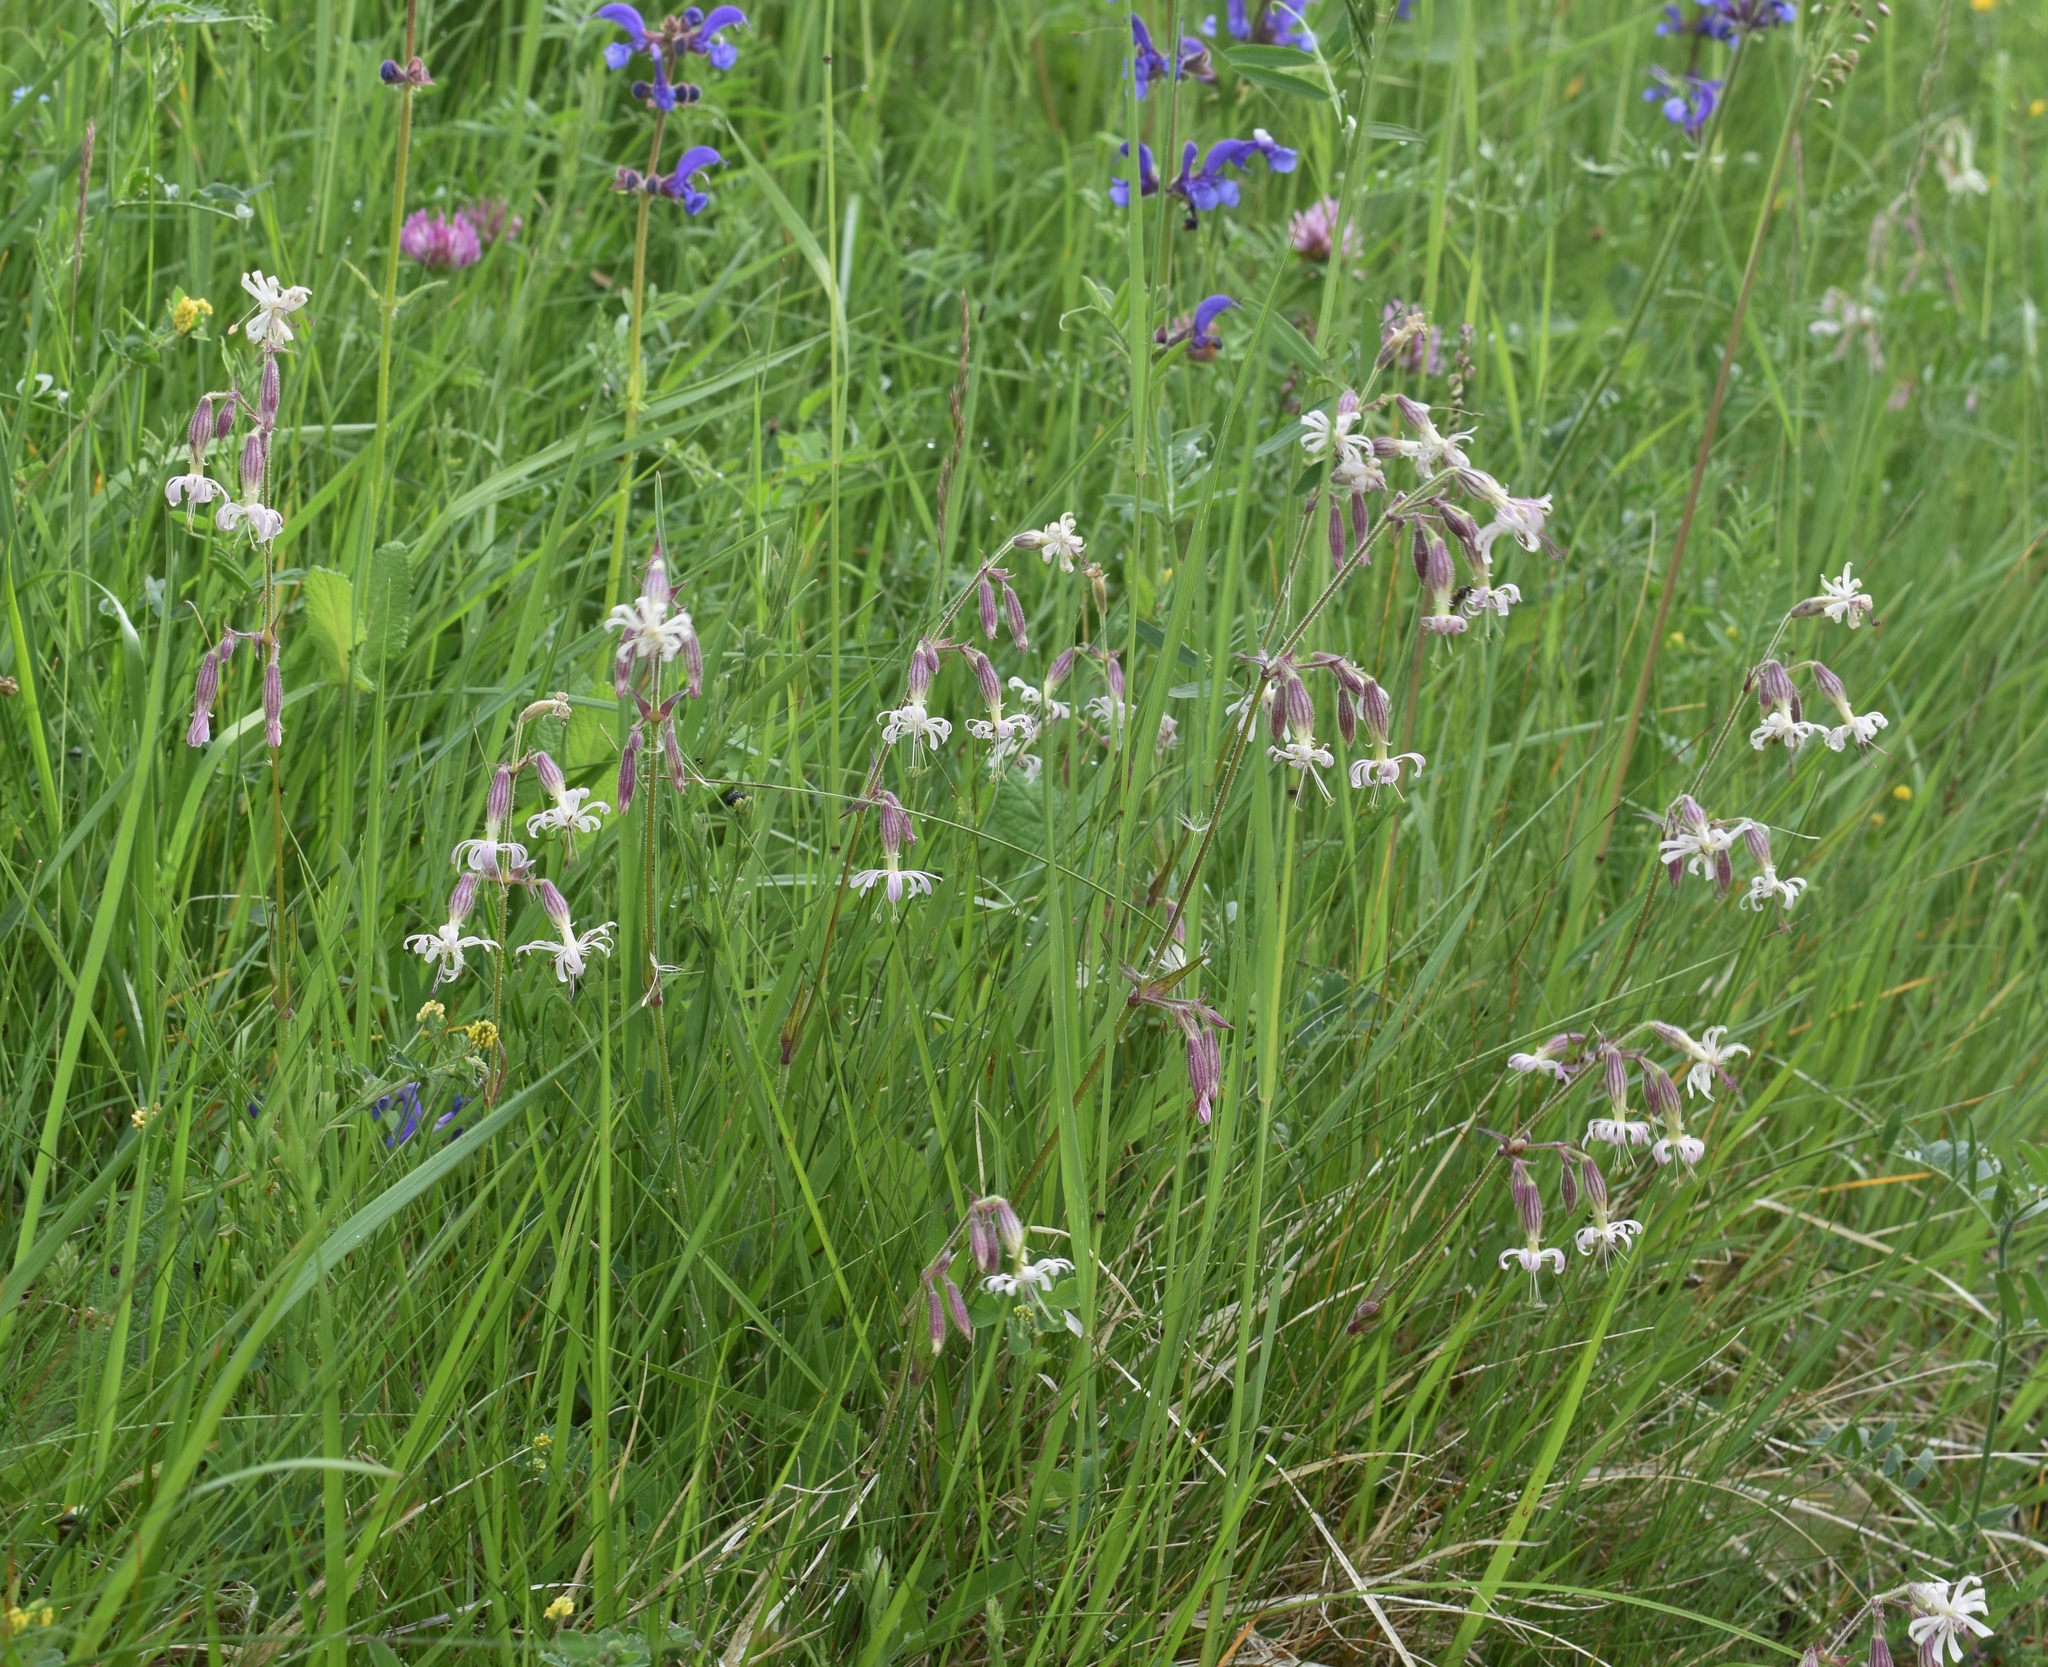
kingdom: Plantae
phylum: Tracheophyta
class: Magnoliopsida
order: Caryophyllales
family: Caryophyllaceae
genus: Silene
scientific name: Silene nutans
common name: Nottingham catchfly
